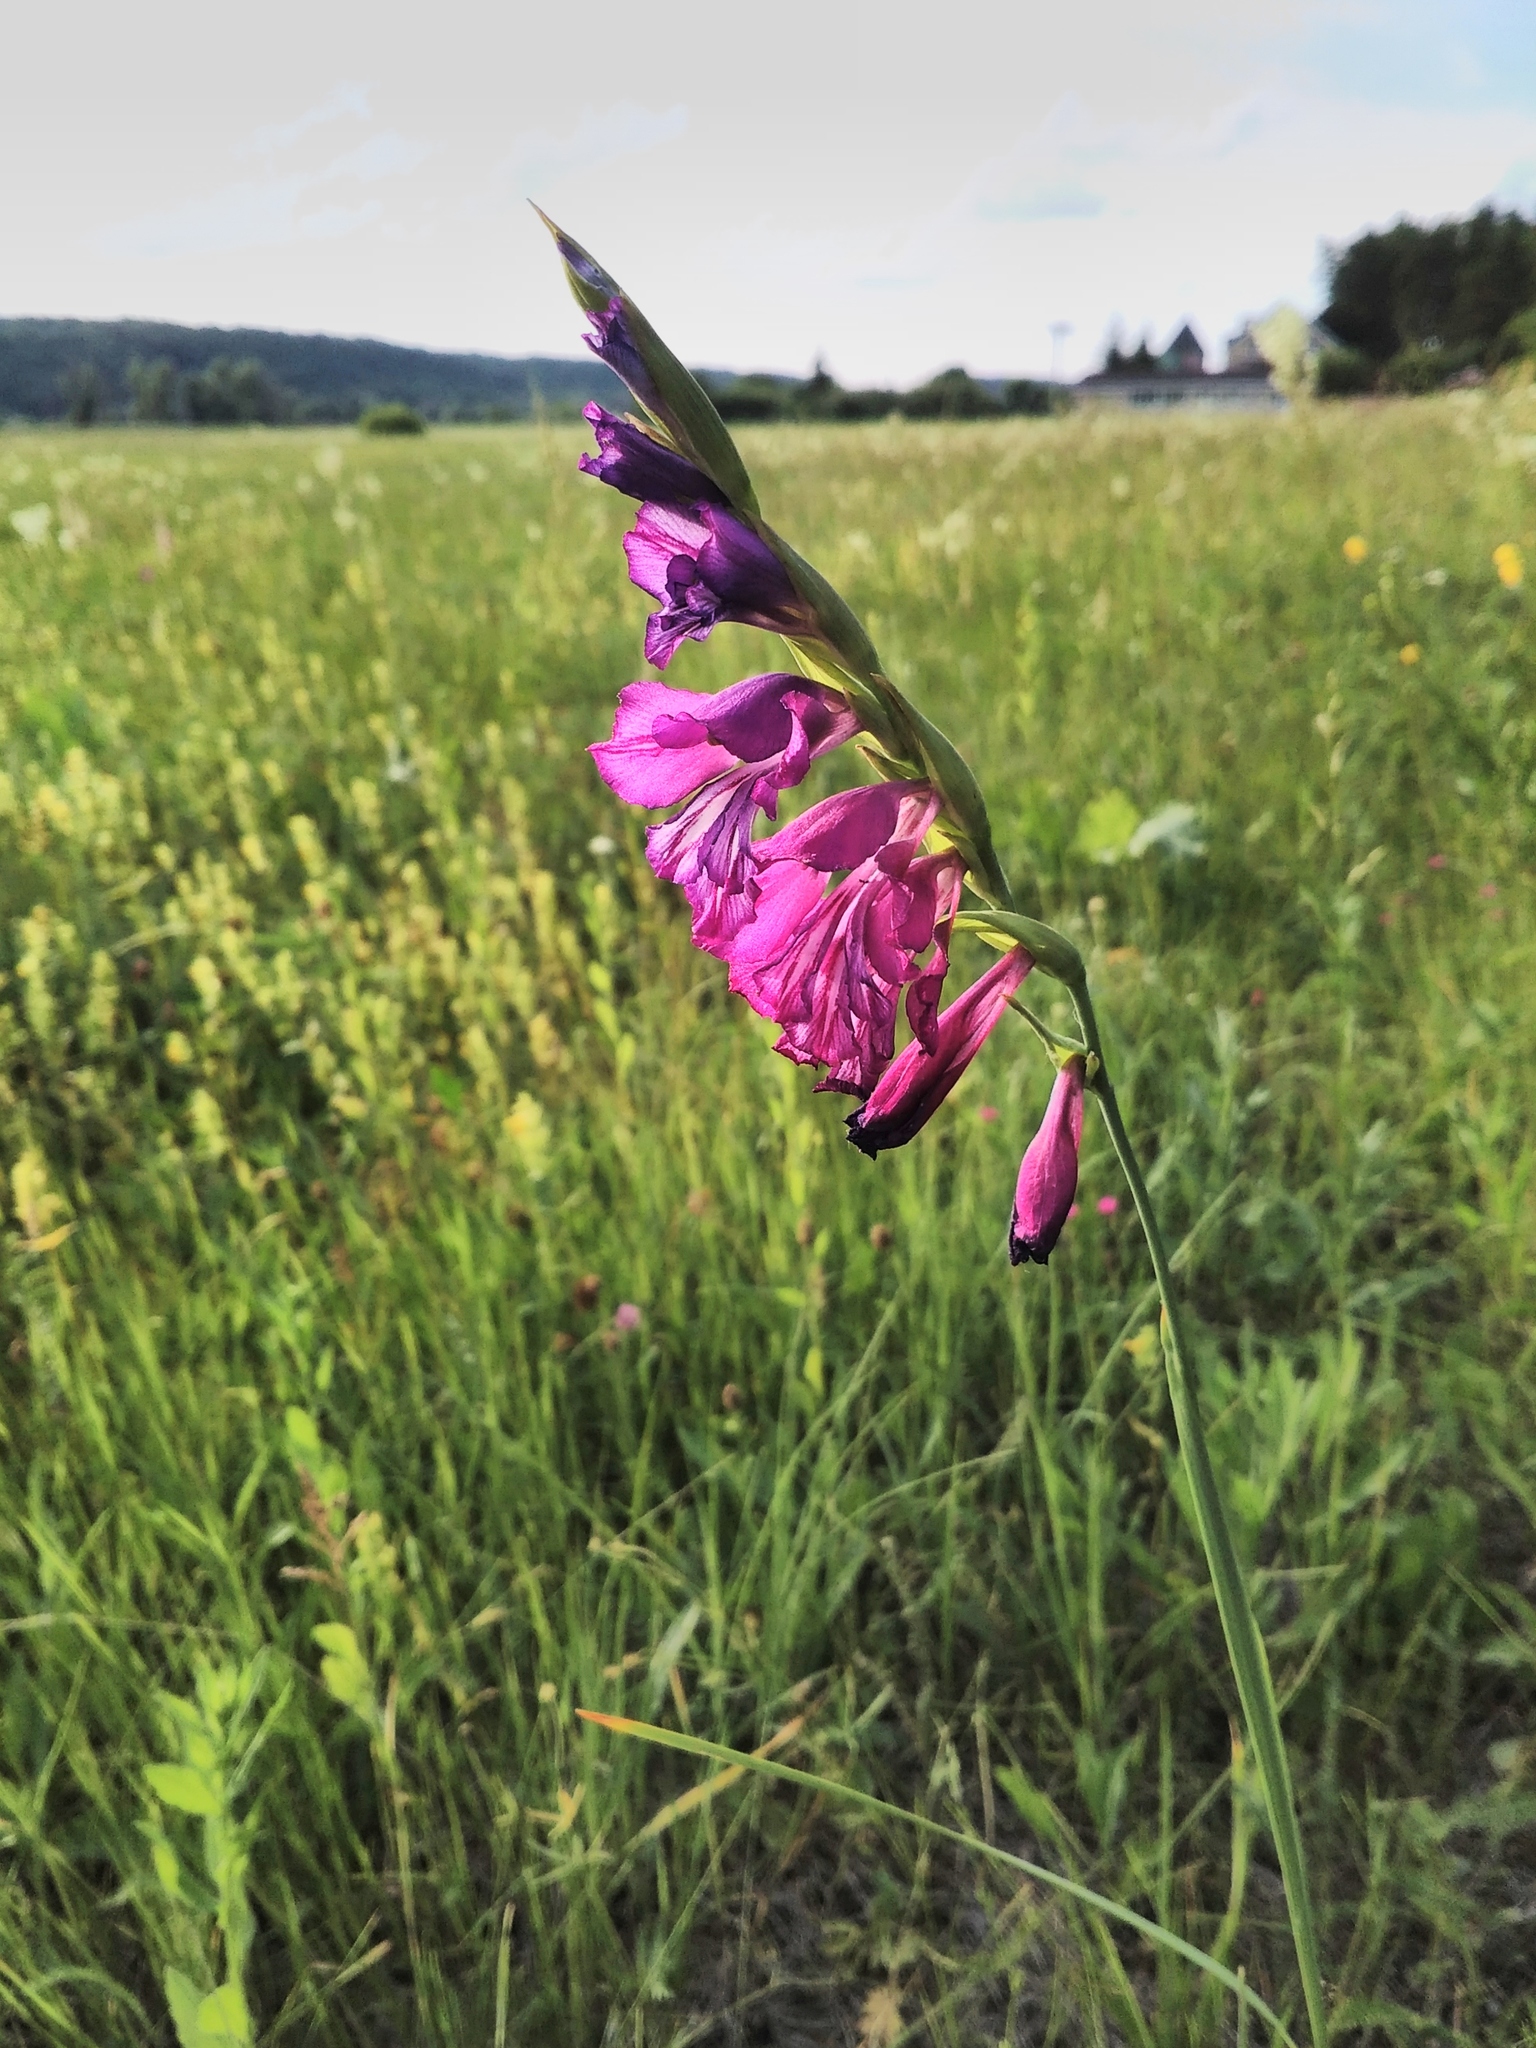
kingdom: Plantae
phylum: Tracheophyta
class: Liliopsida
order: Asparagales
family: Iridaceae
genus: Gladiolus
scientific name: Gladiolus tenuis
